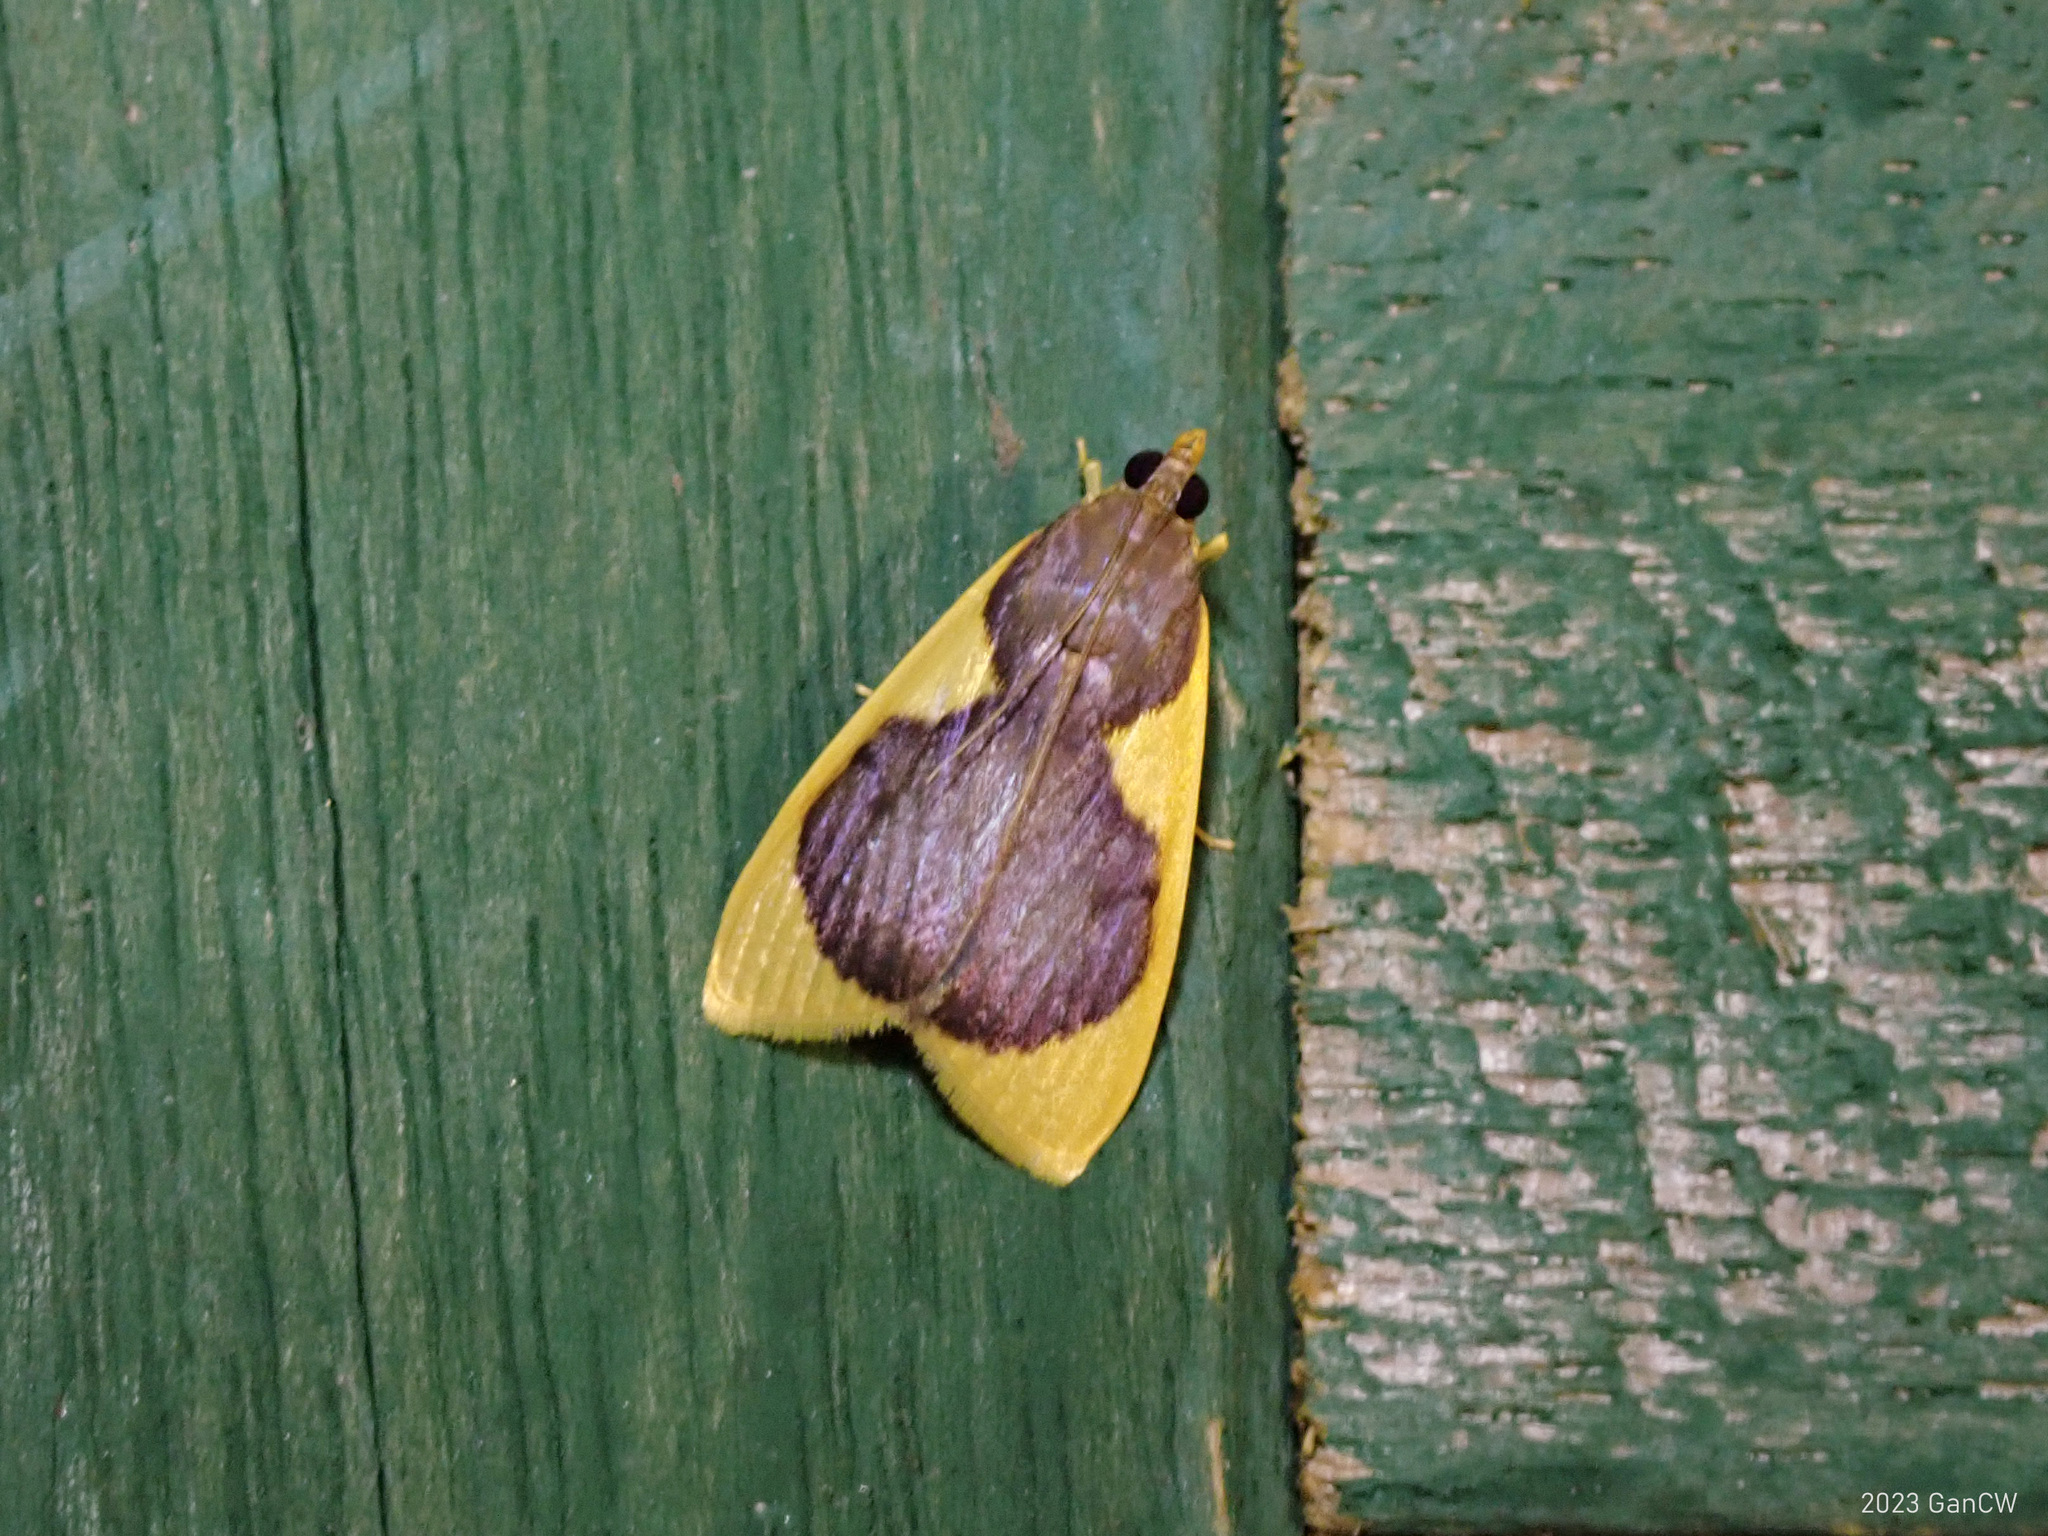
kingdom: Animalia
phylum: Arthropoda
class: Insecta
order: Lepidoptera
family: Crambidae
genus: Prooedema
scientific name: Prooedema inscisalis
